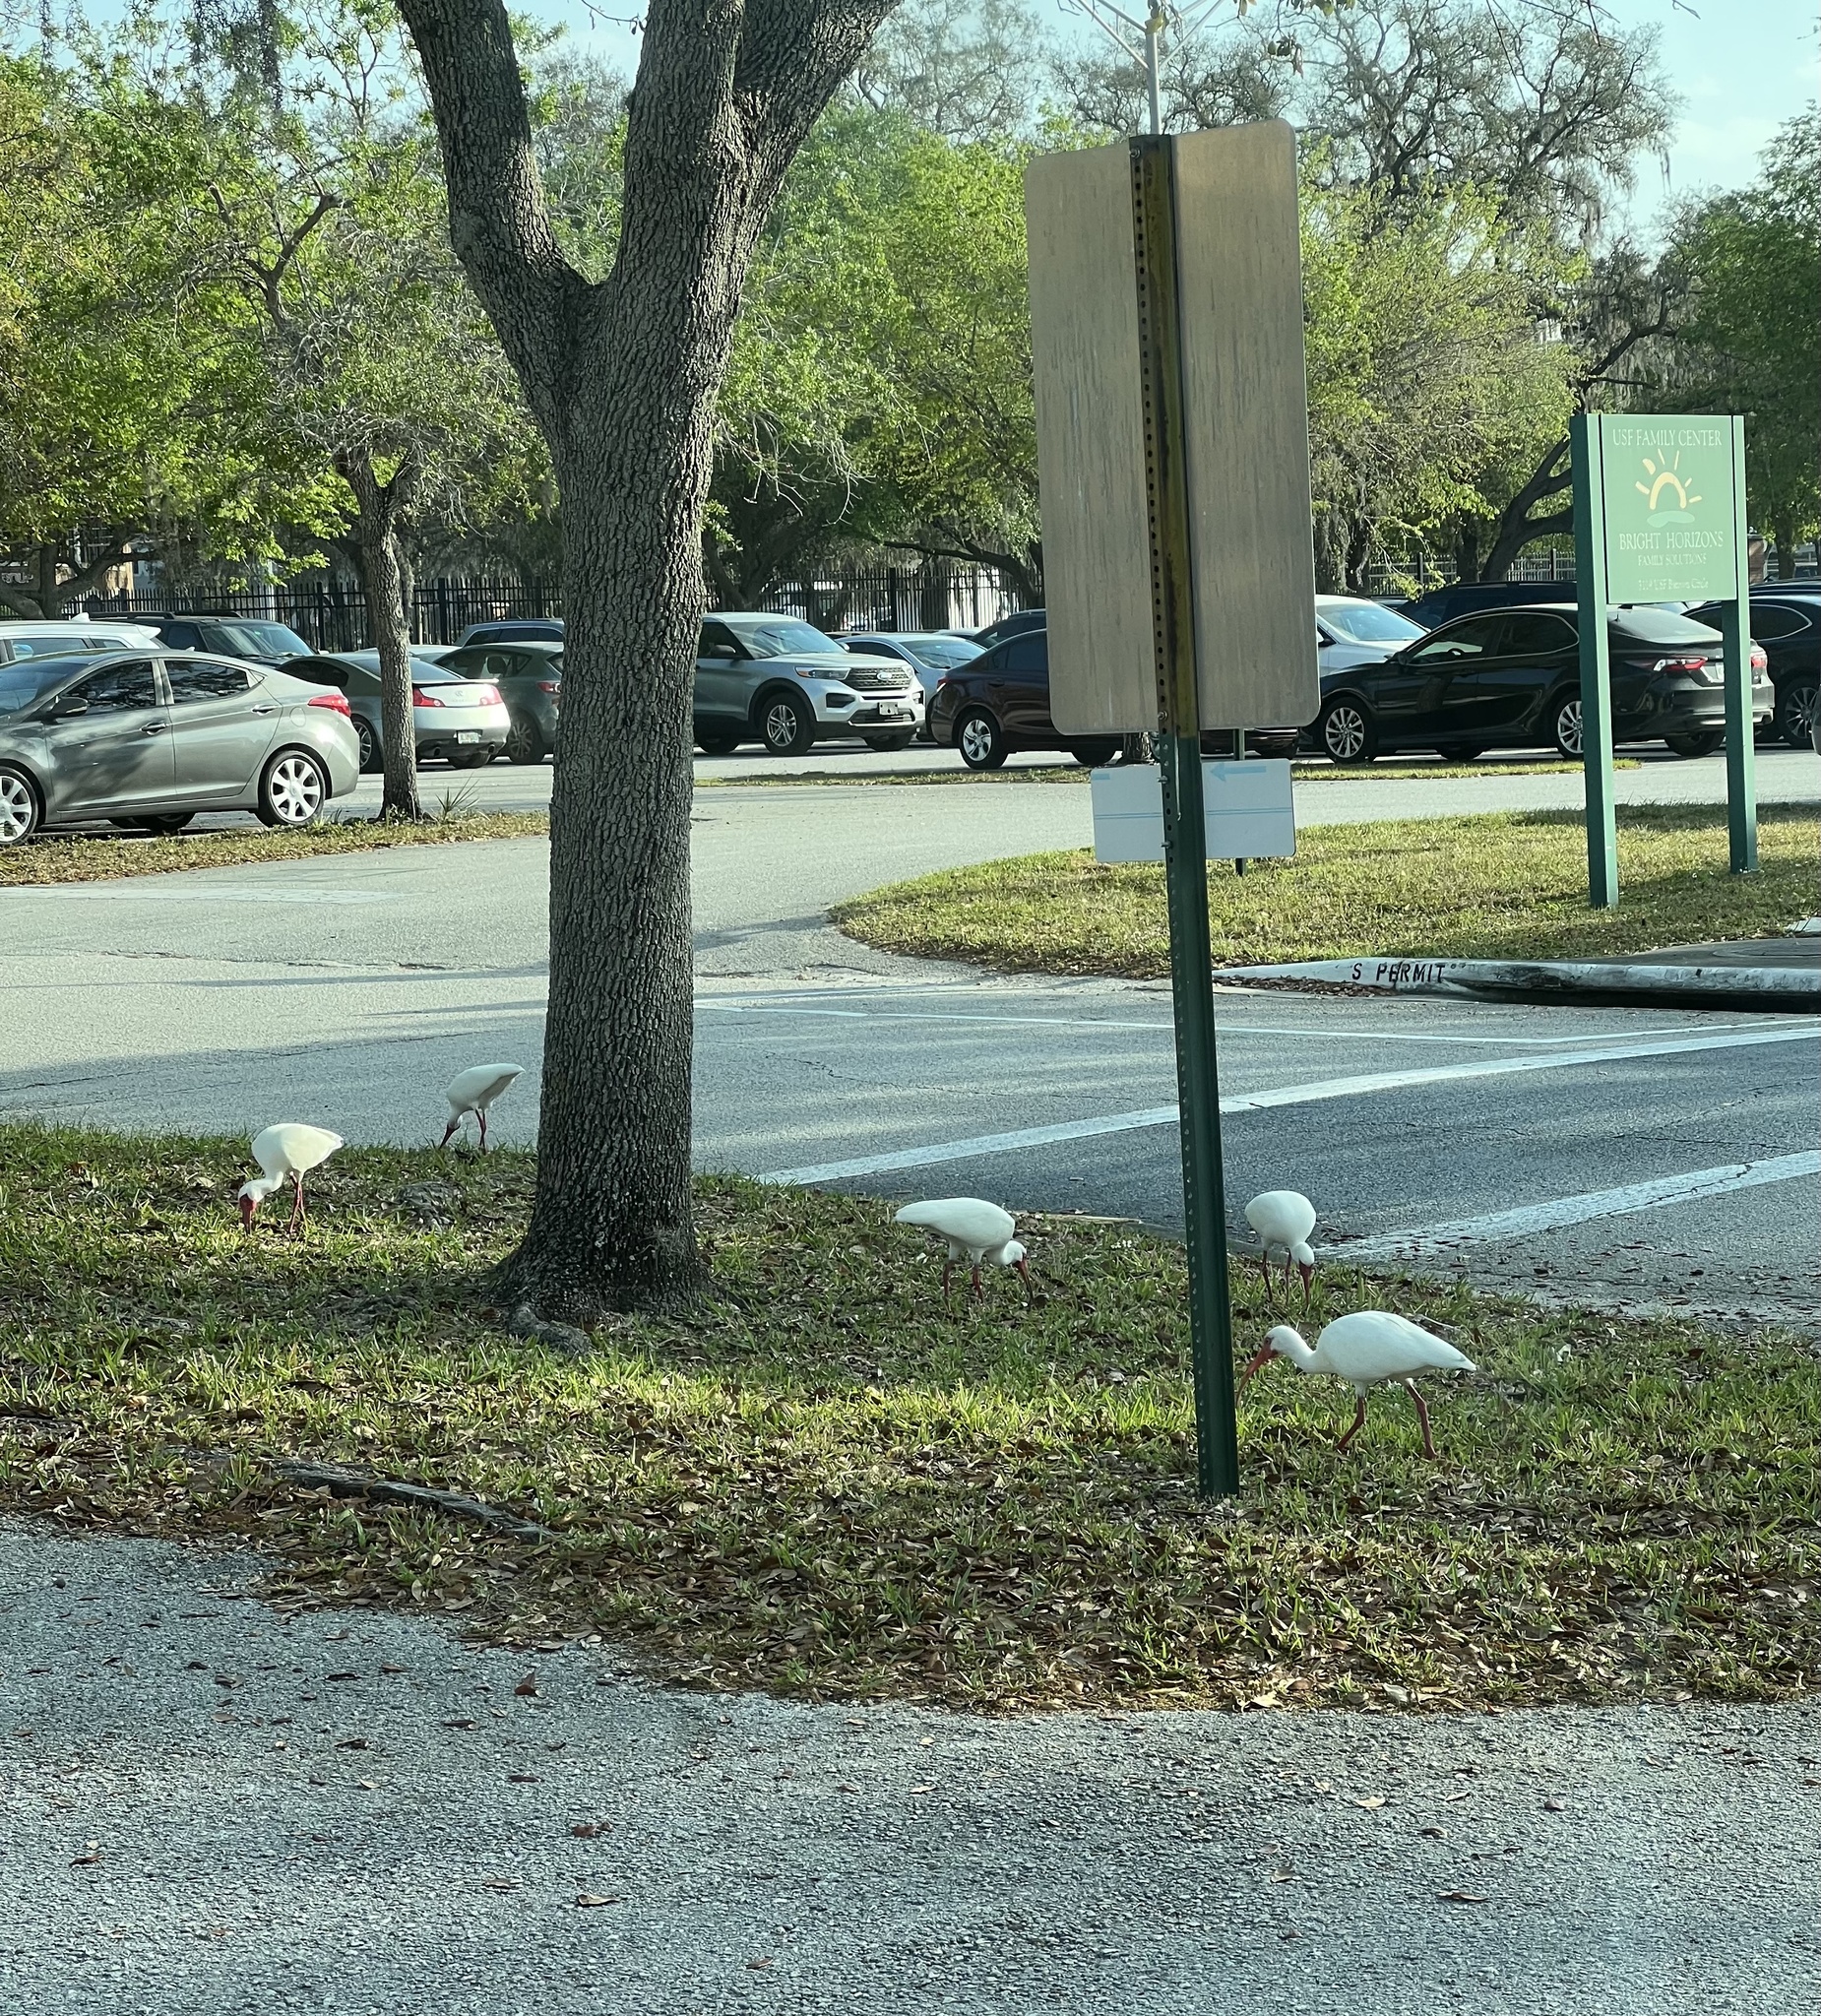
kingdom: Animalia
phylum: Chordata
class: Aves
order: Pelecaniformes
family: Threskiornithidae
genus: Eudocimus
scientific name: Eudocimus albus
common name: White ibis
